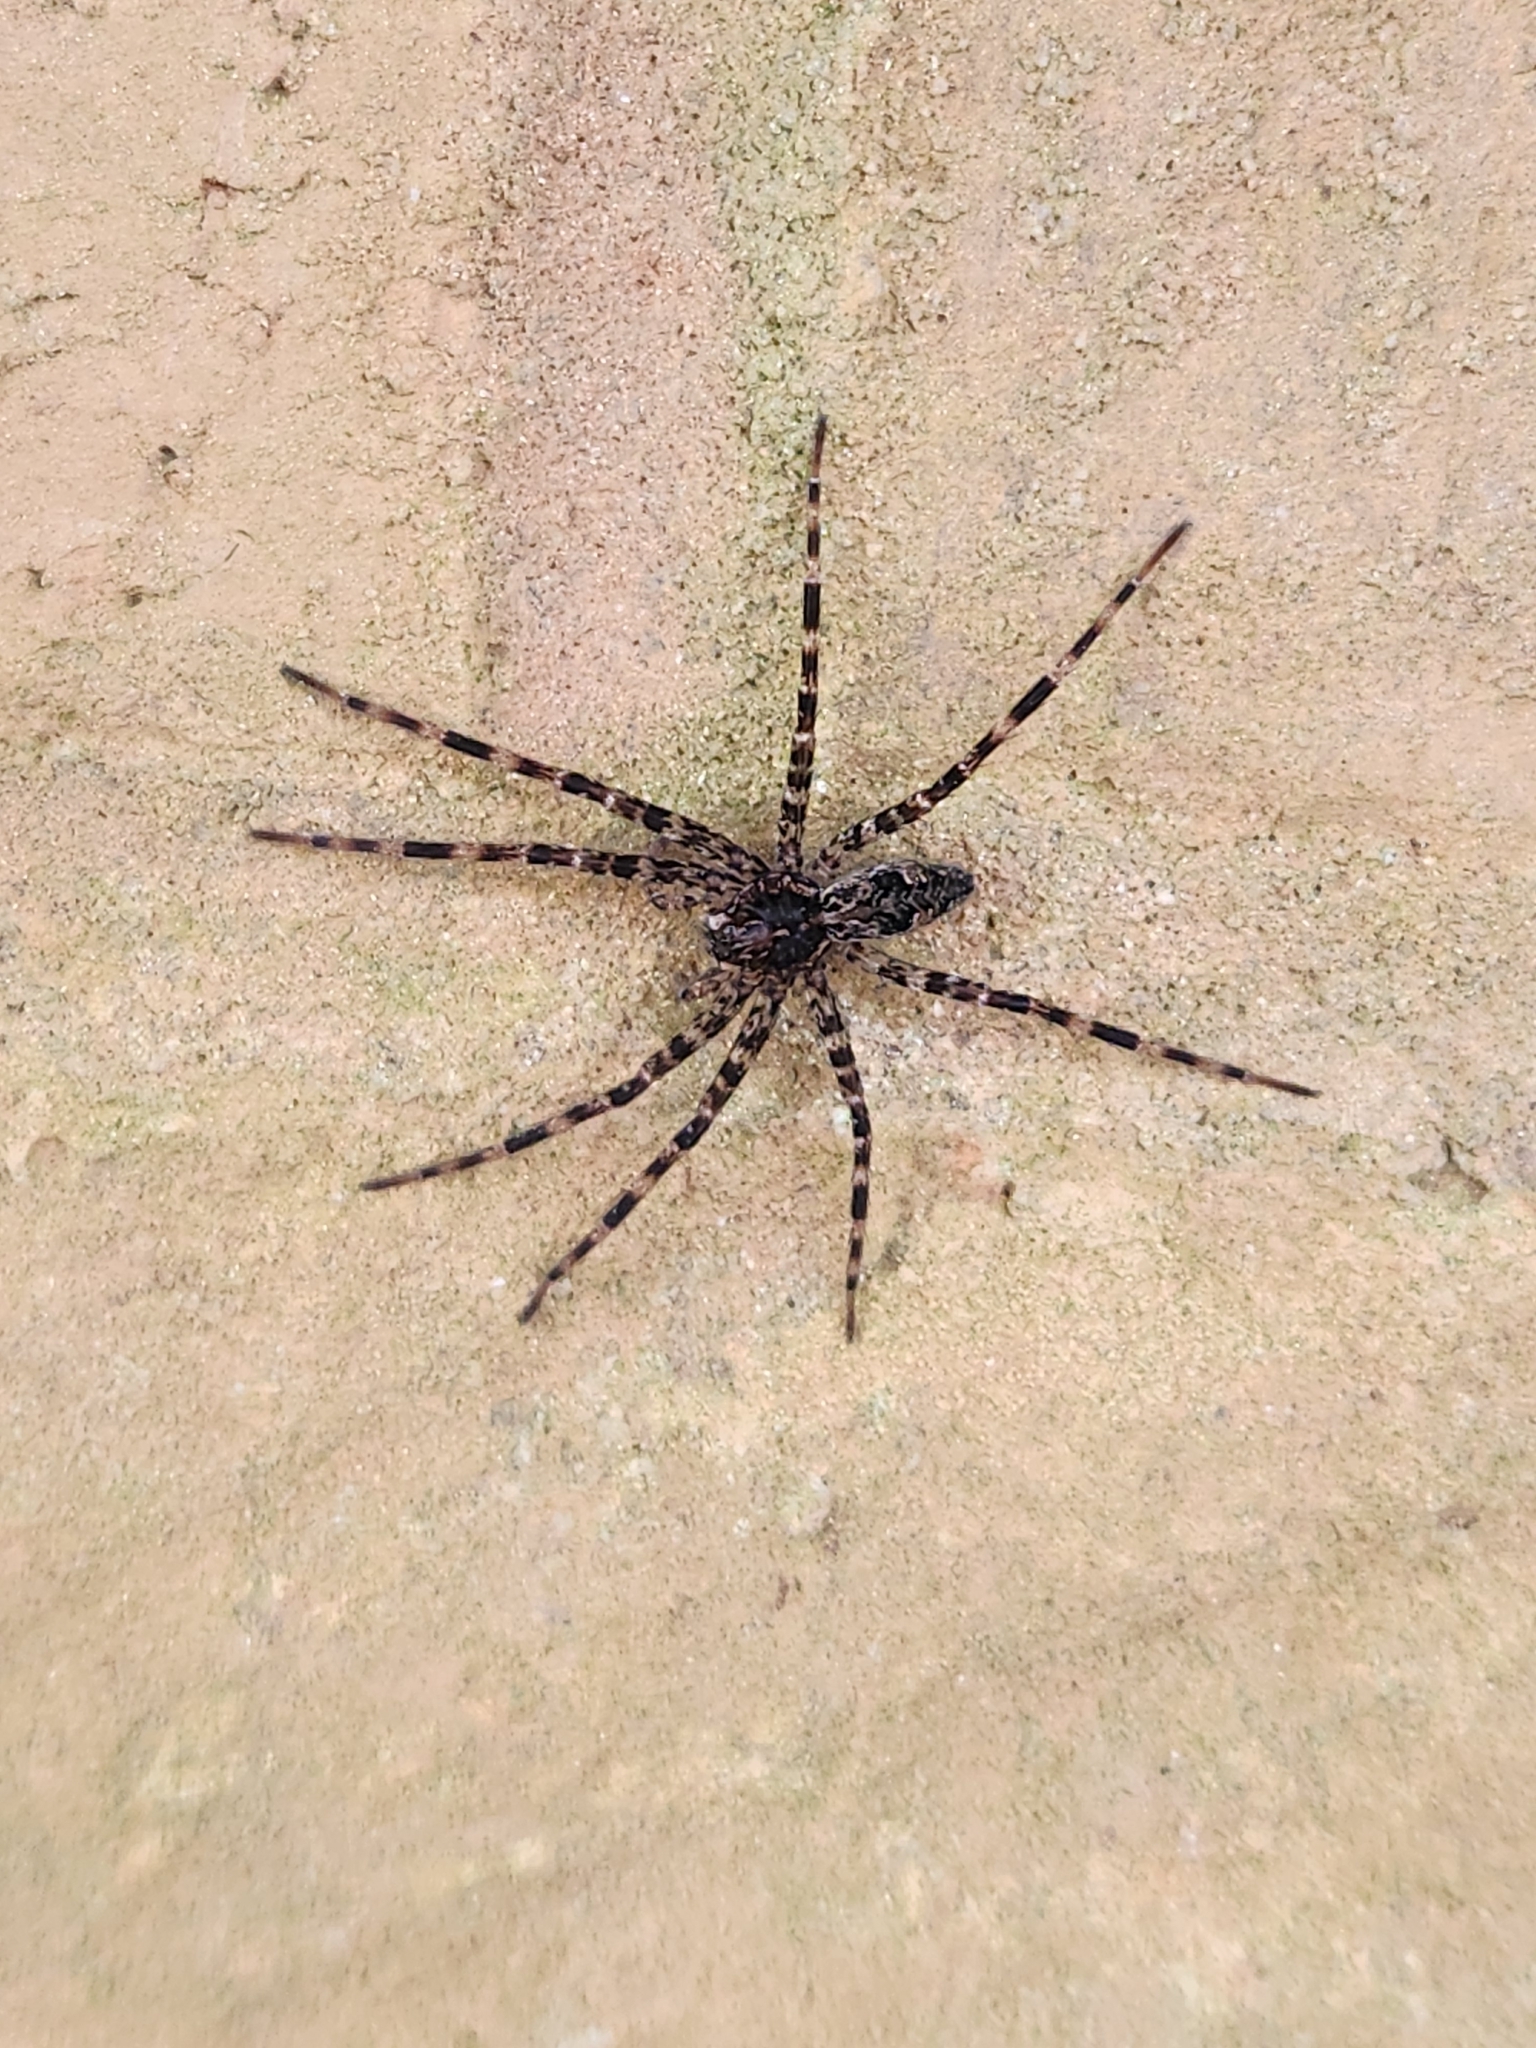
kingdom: Animalia
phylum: Arthropoda
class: Arachnida
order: Araneae
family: Pisauridae
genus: Dolomedes
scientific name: Dolomedes tenebrosus
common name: Dark fishing spider
